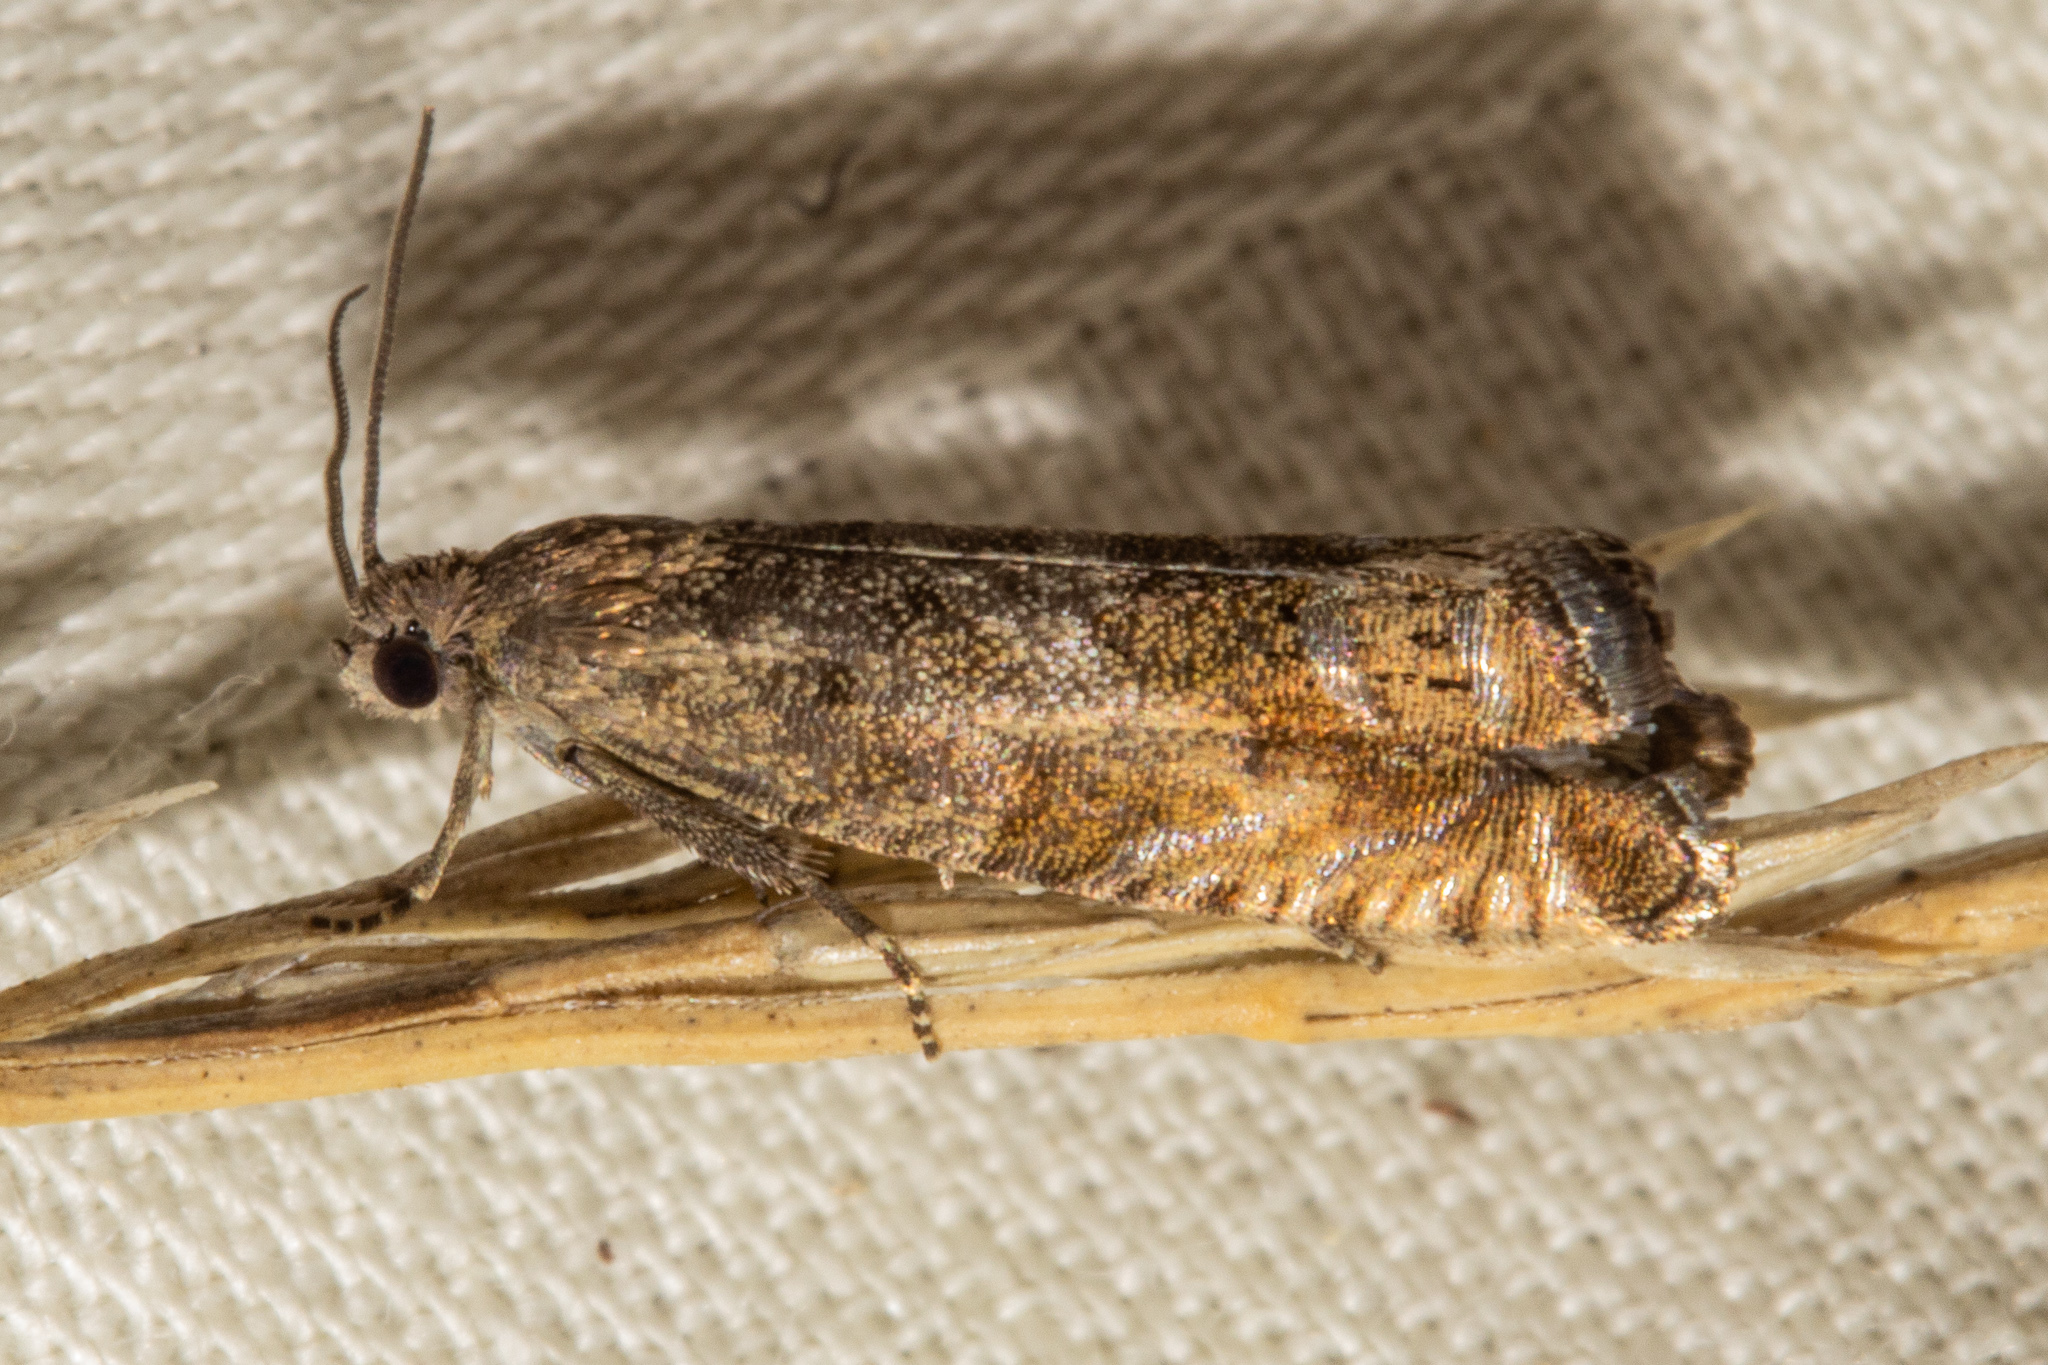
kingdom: Animalia
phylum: Arthropoda
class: Insecta
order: Lepidoptera
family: Tortricidae
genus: Cydia
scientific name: Cydia succedana
